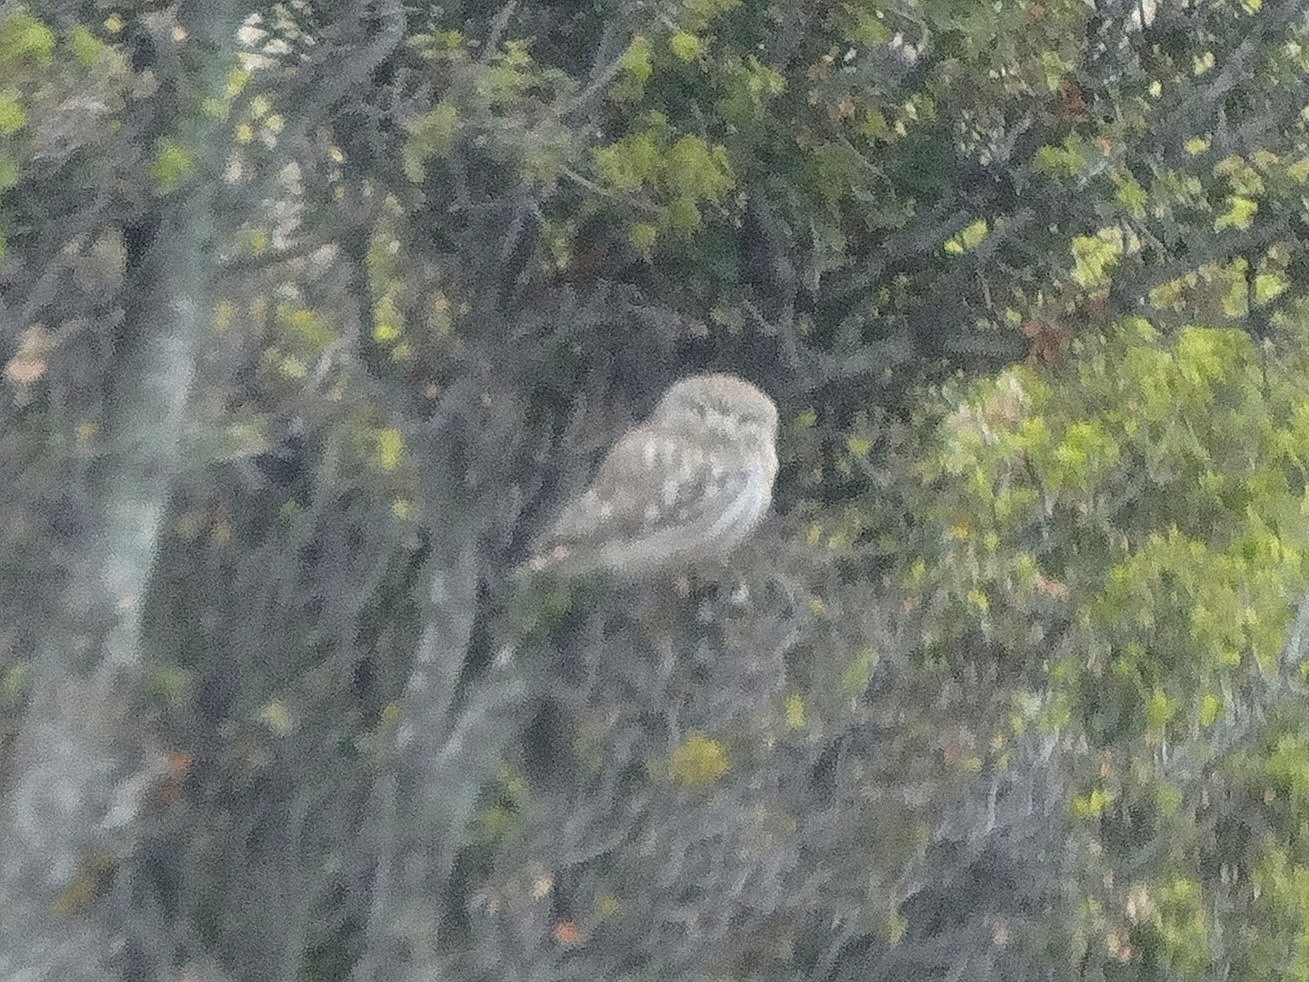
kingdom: Animalia
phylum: Chordata
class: Aves
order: Strigiformes
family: Strigidae
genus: Athene
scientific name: Athene noctua
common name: Little owl
